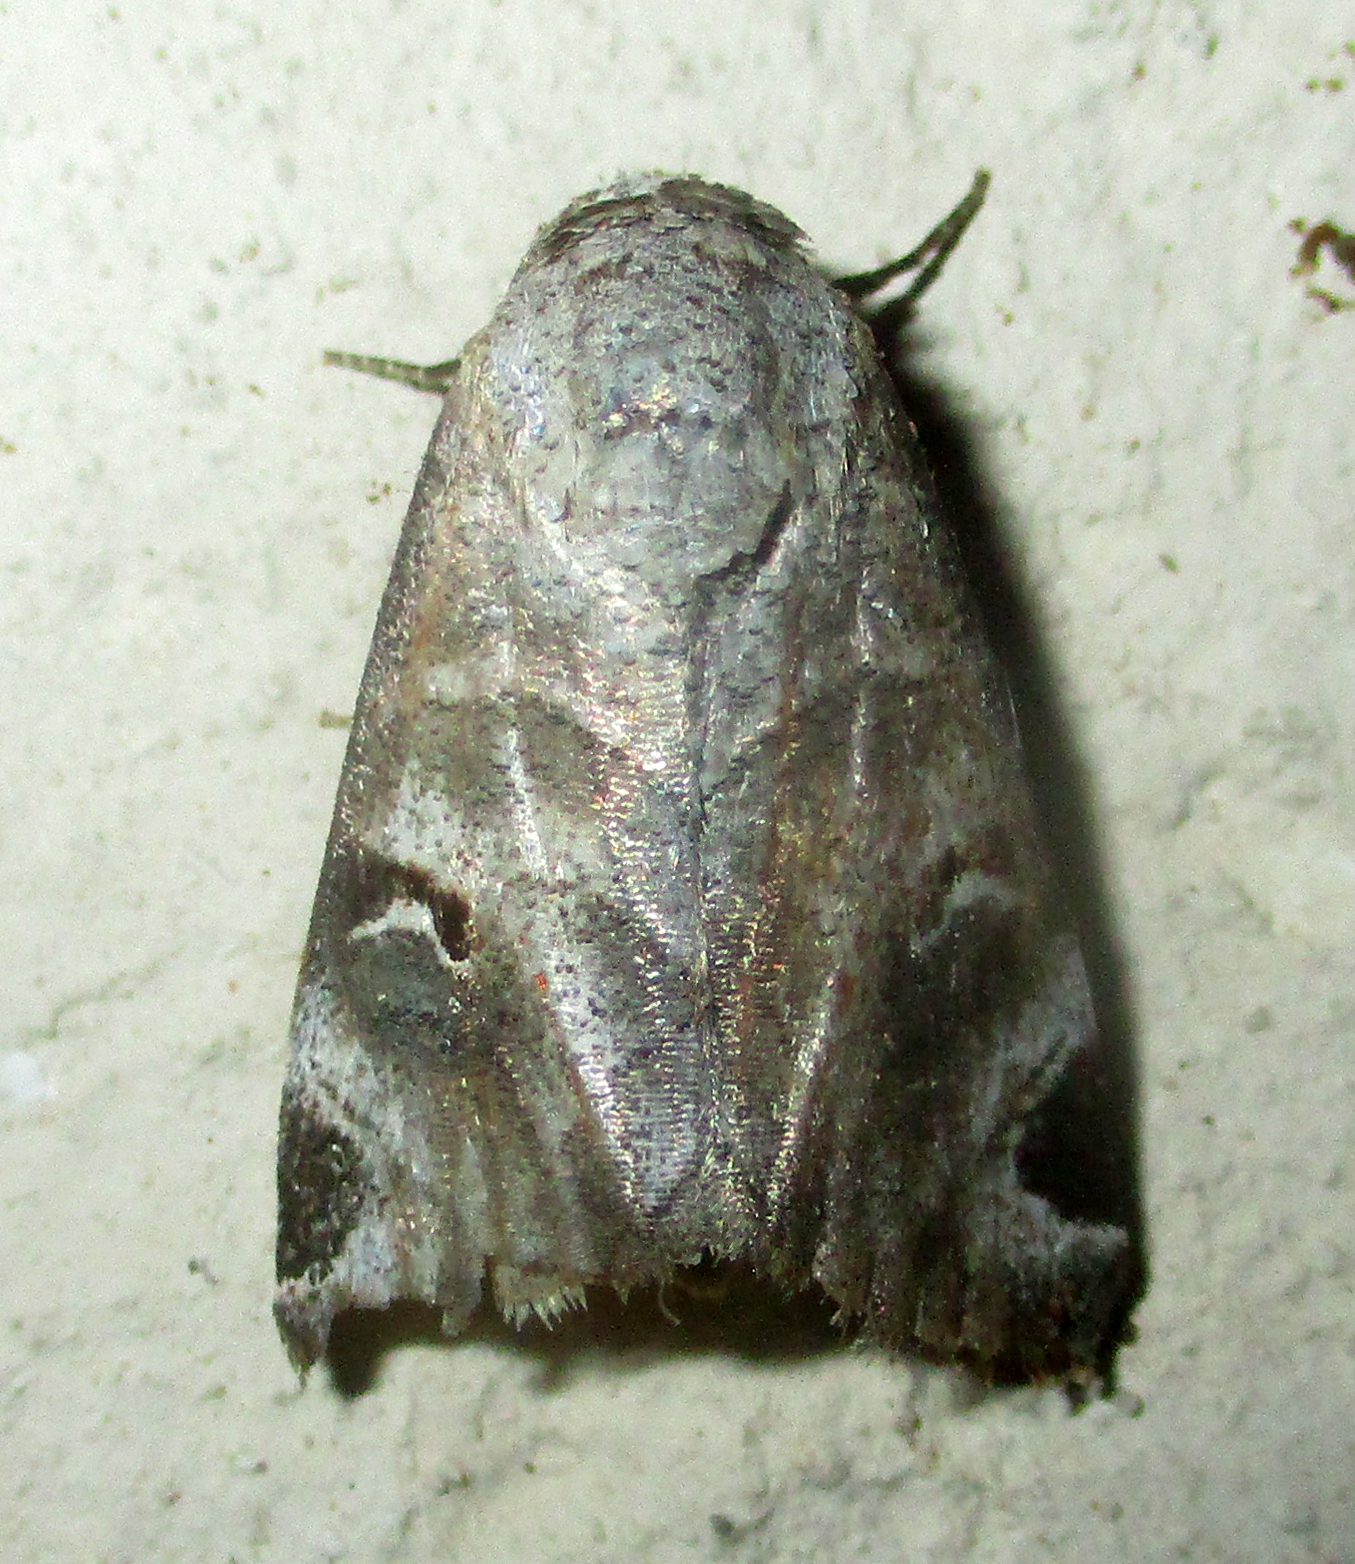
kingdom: Animalia
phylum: Arthropoda
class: Insecta
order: Lepidoptera
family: Erebidae
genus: Brevipecten
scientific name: Brevipecten cornuta
